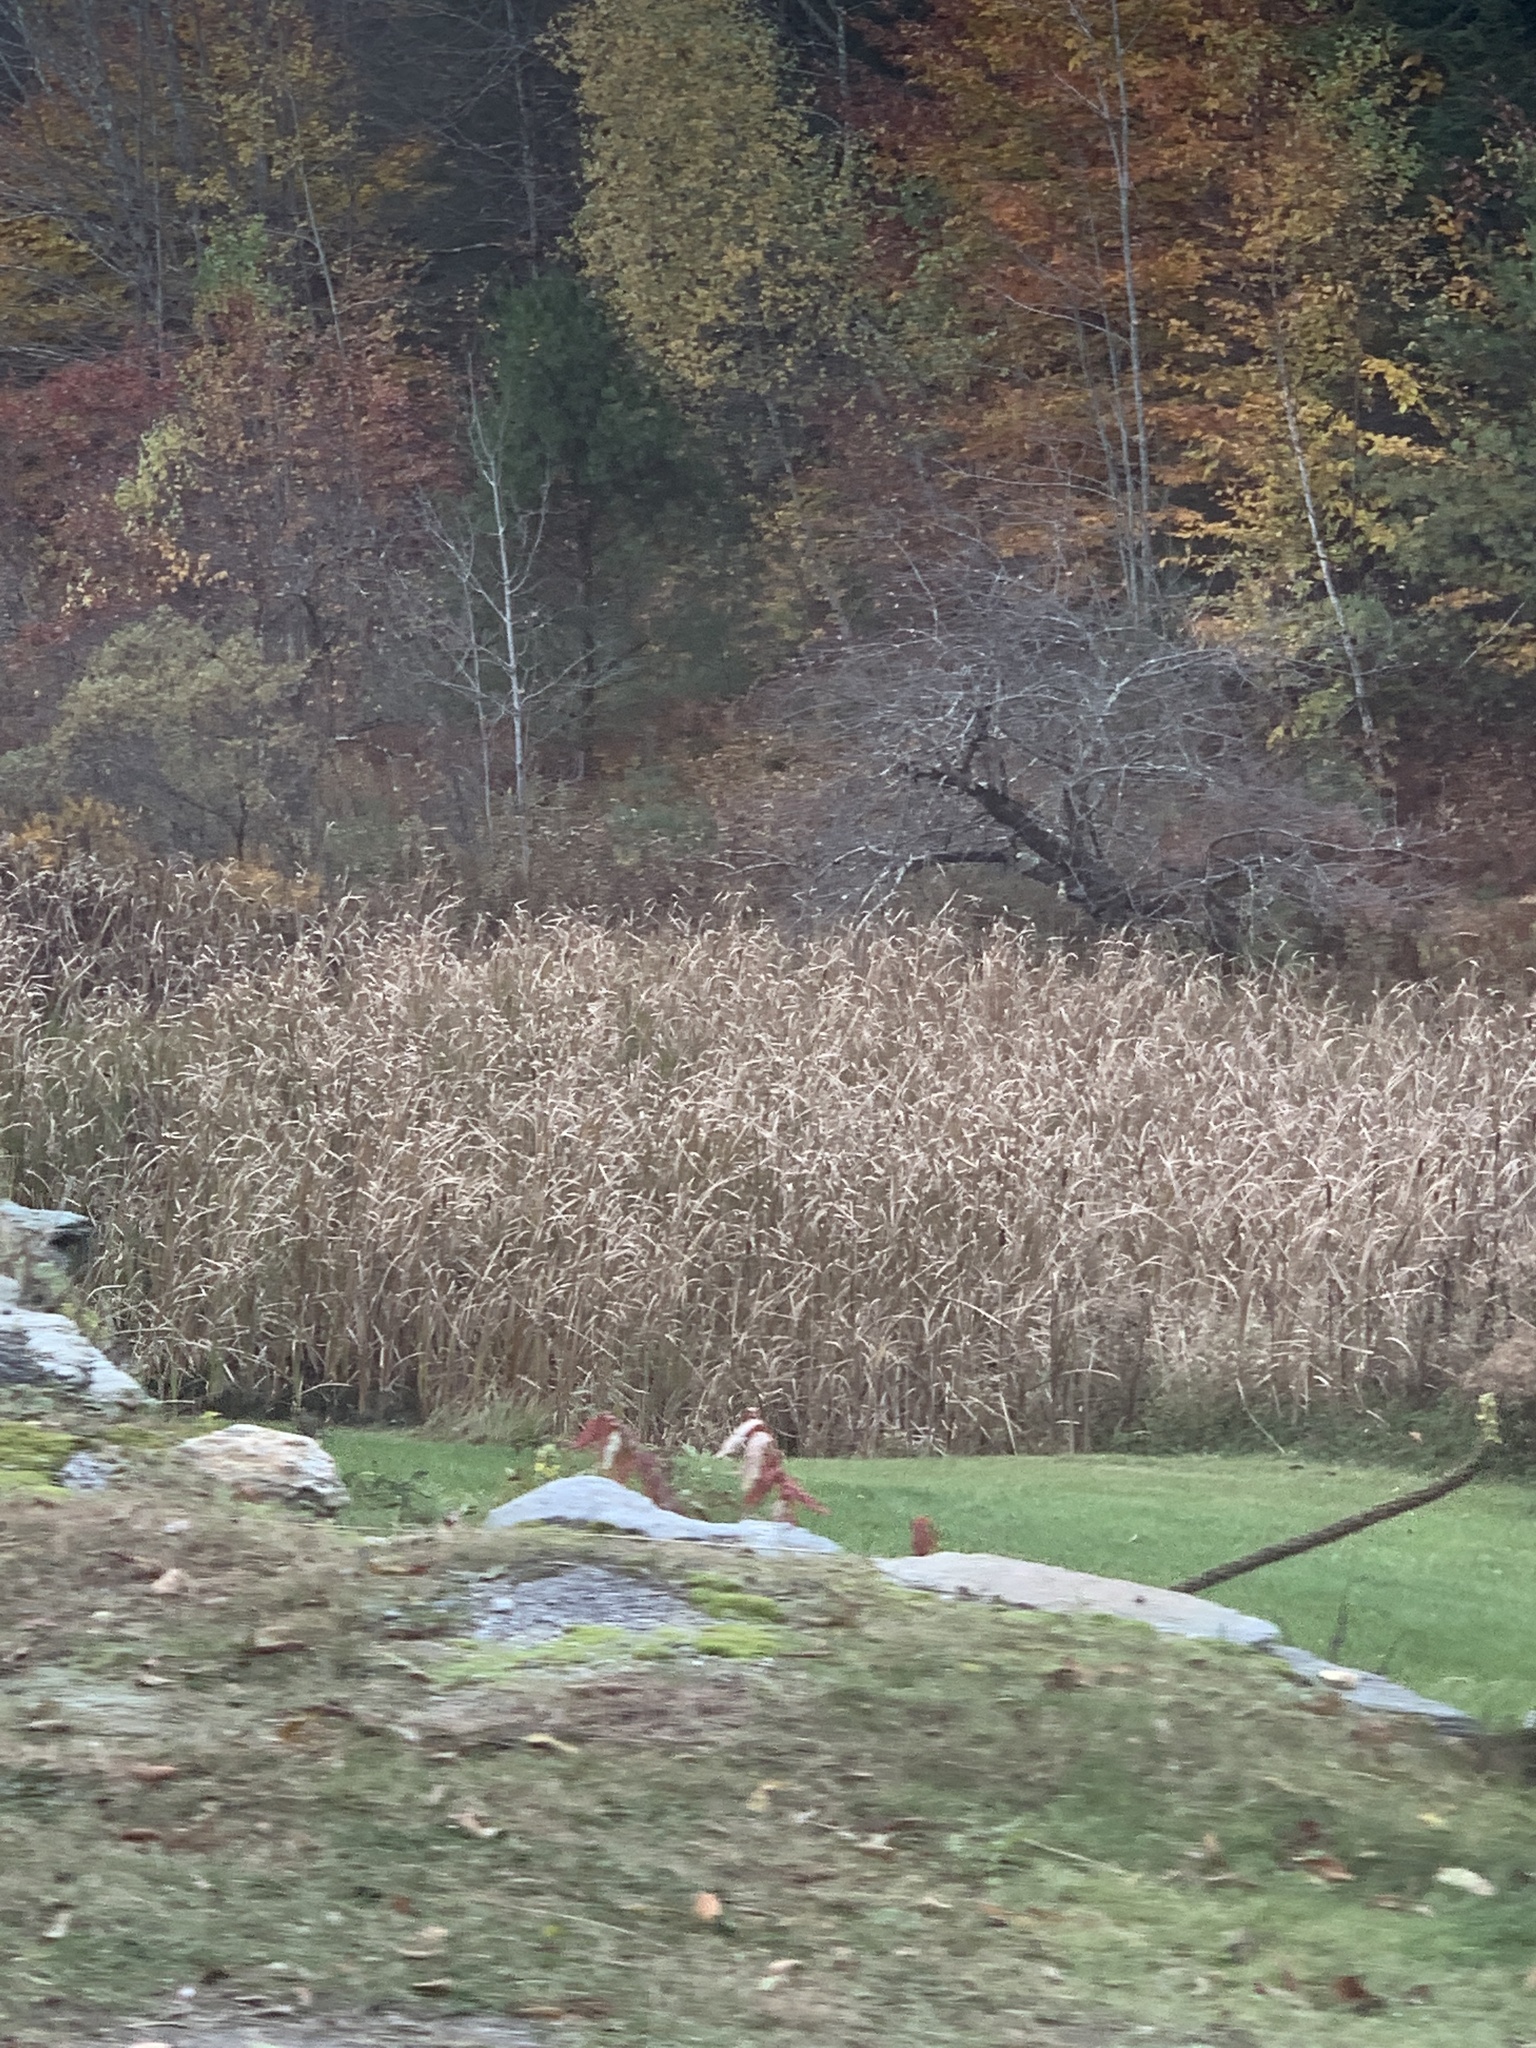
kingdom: Plantae
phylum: Tracheophyta
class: Liliopsida
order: Poales
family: Typhaceae
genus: Typha
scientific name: Typha
